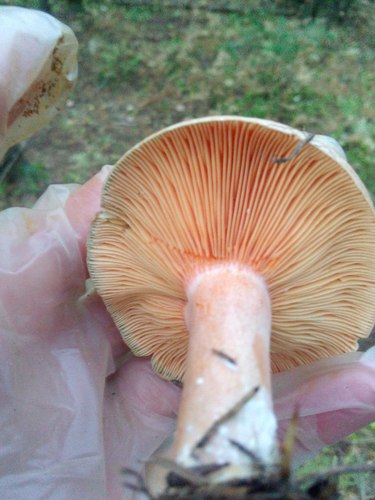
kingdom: Fungi
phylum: Basidiomycota
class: Agaricomycetes
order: Russulales
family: Russulaceae
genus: Lactarius
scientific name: Lactarius deliciosus
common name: Saffron milk-cap
